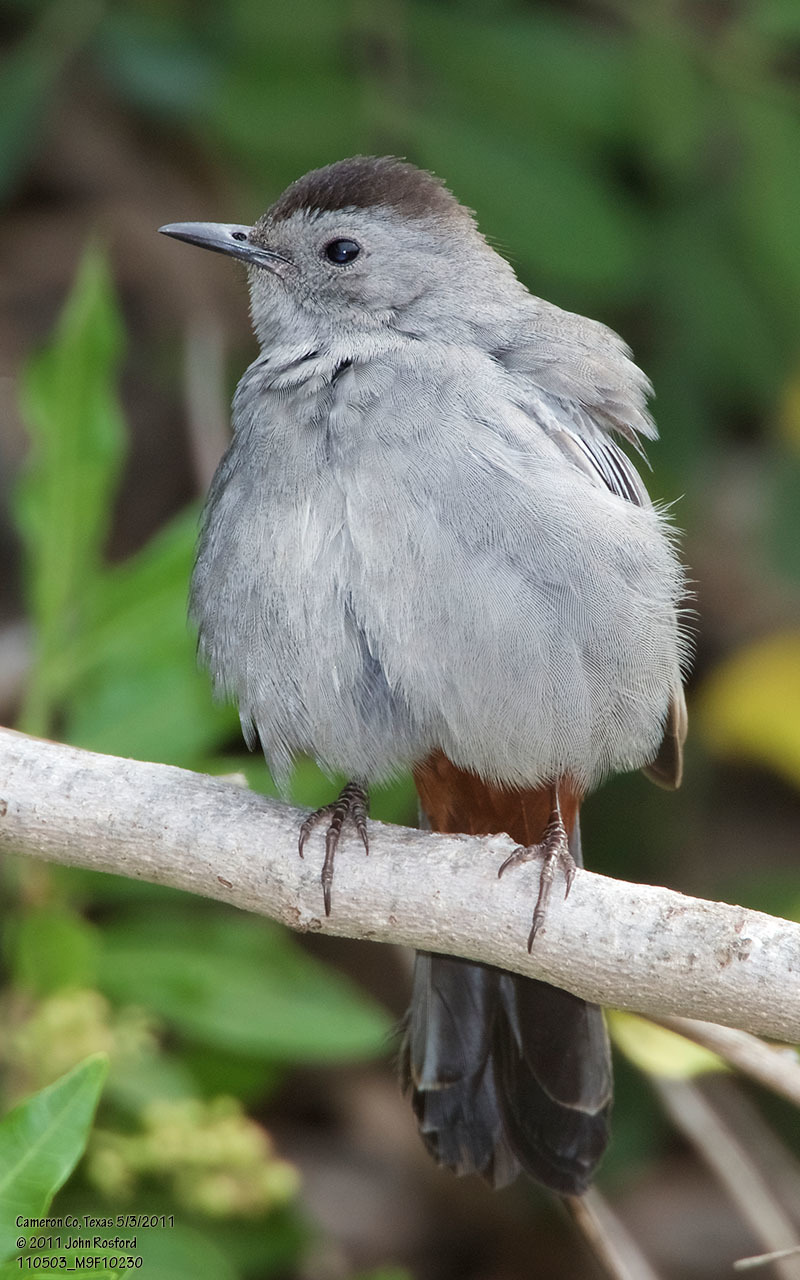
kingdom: Animalia
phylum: Chordata
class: Aves
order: Passeriformes
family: Mimidae
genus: Dumetella
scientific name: Dumetella carolinensis
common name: Gray catbird
